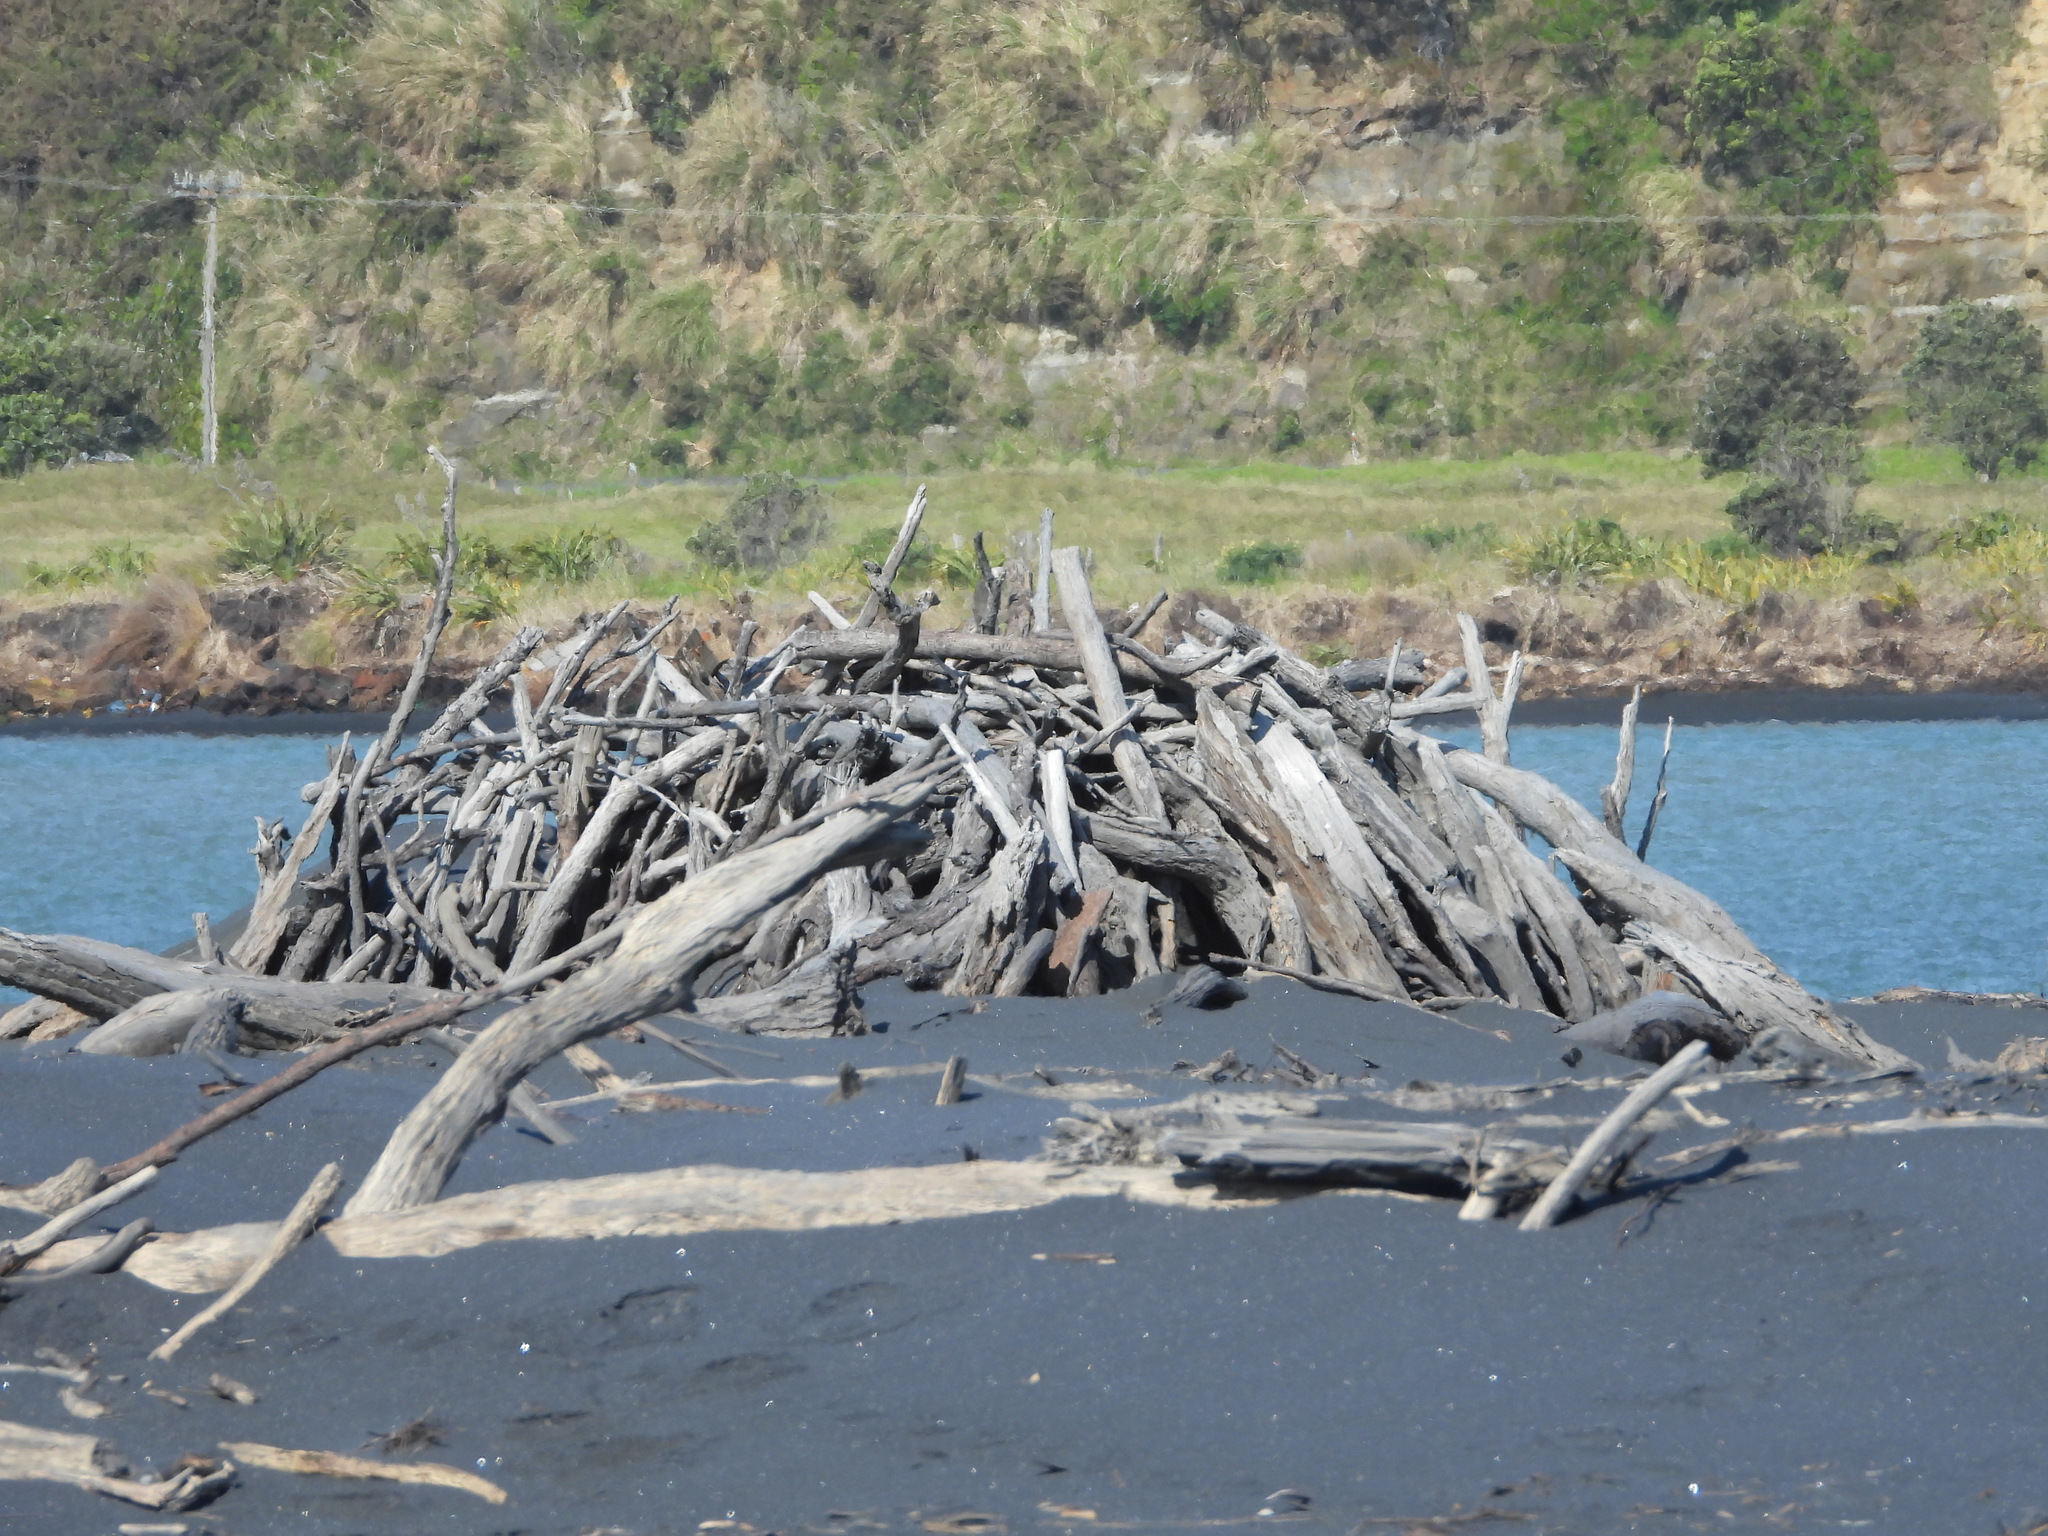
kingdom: Animalia
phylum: Chordata
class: Aves
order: Charadriiformes
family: Charadriidae
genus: Anarhynchus
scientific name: Anarhynchus
